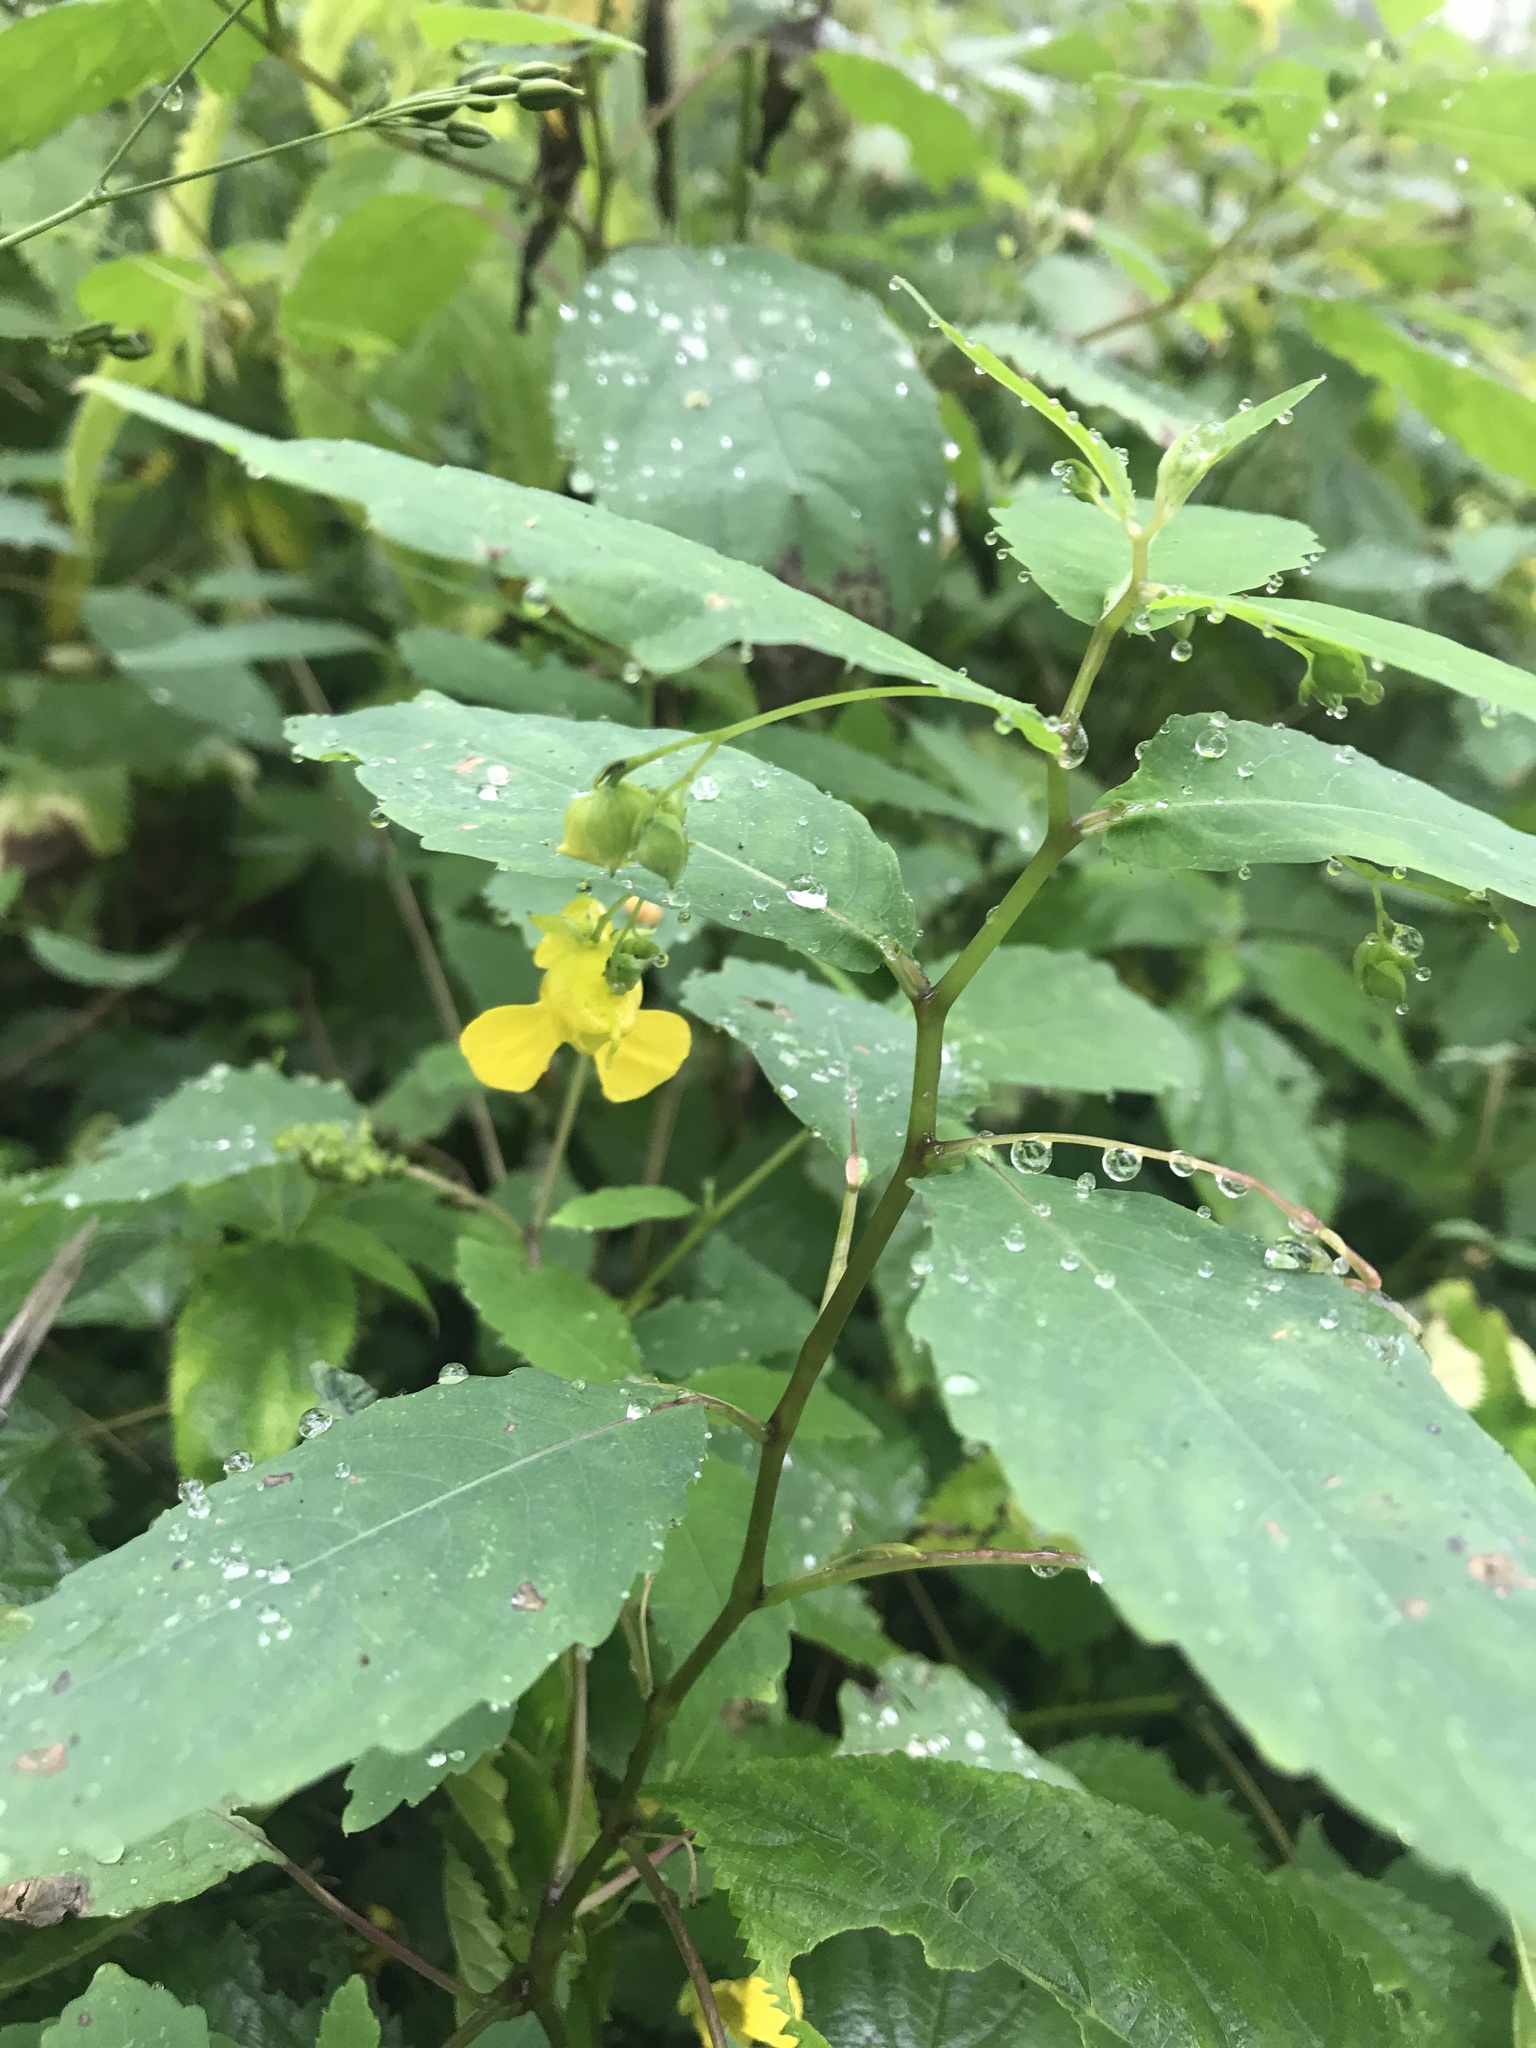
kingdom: Plantae
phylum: Tracheophyta
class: Magnoliopsida
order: Ericales
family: Balsaminaceae
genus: Impatiens
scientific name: Impatiens pallida
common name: Pale snapweed
